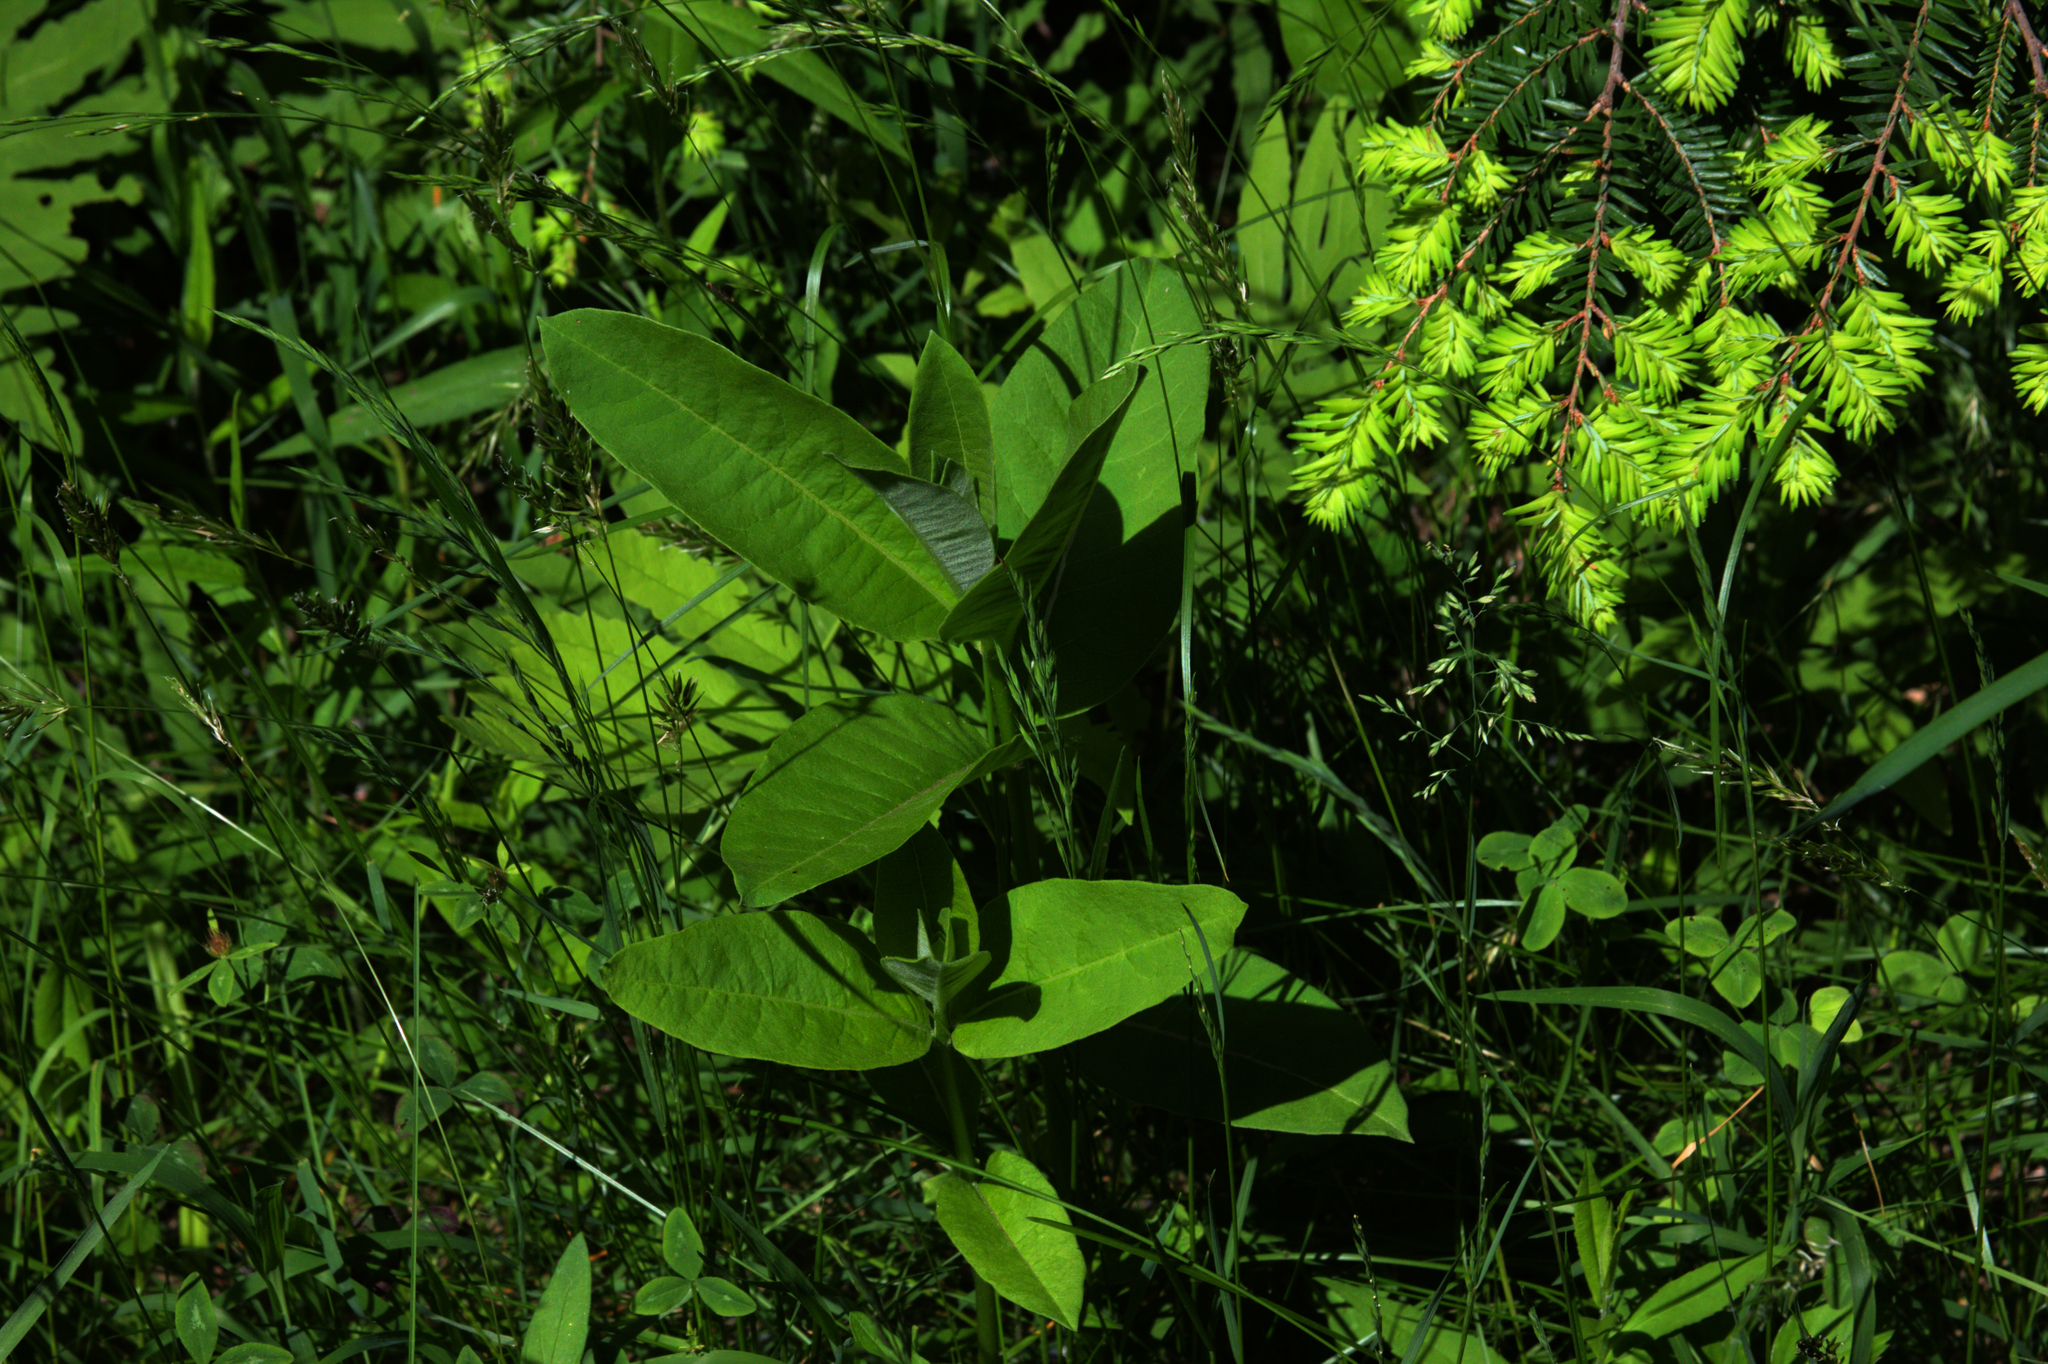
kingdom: Plantae
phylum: Tracheophyta
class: Magnoliopsida
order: Gentianales
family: Apocynaceae
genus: Asclepias
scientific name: Asclepias syriaca
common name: Common milkweed
